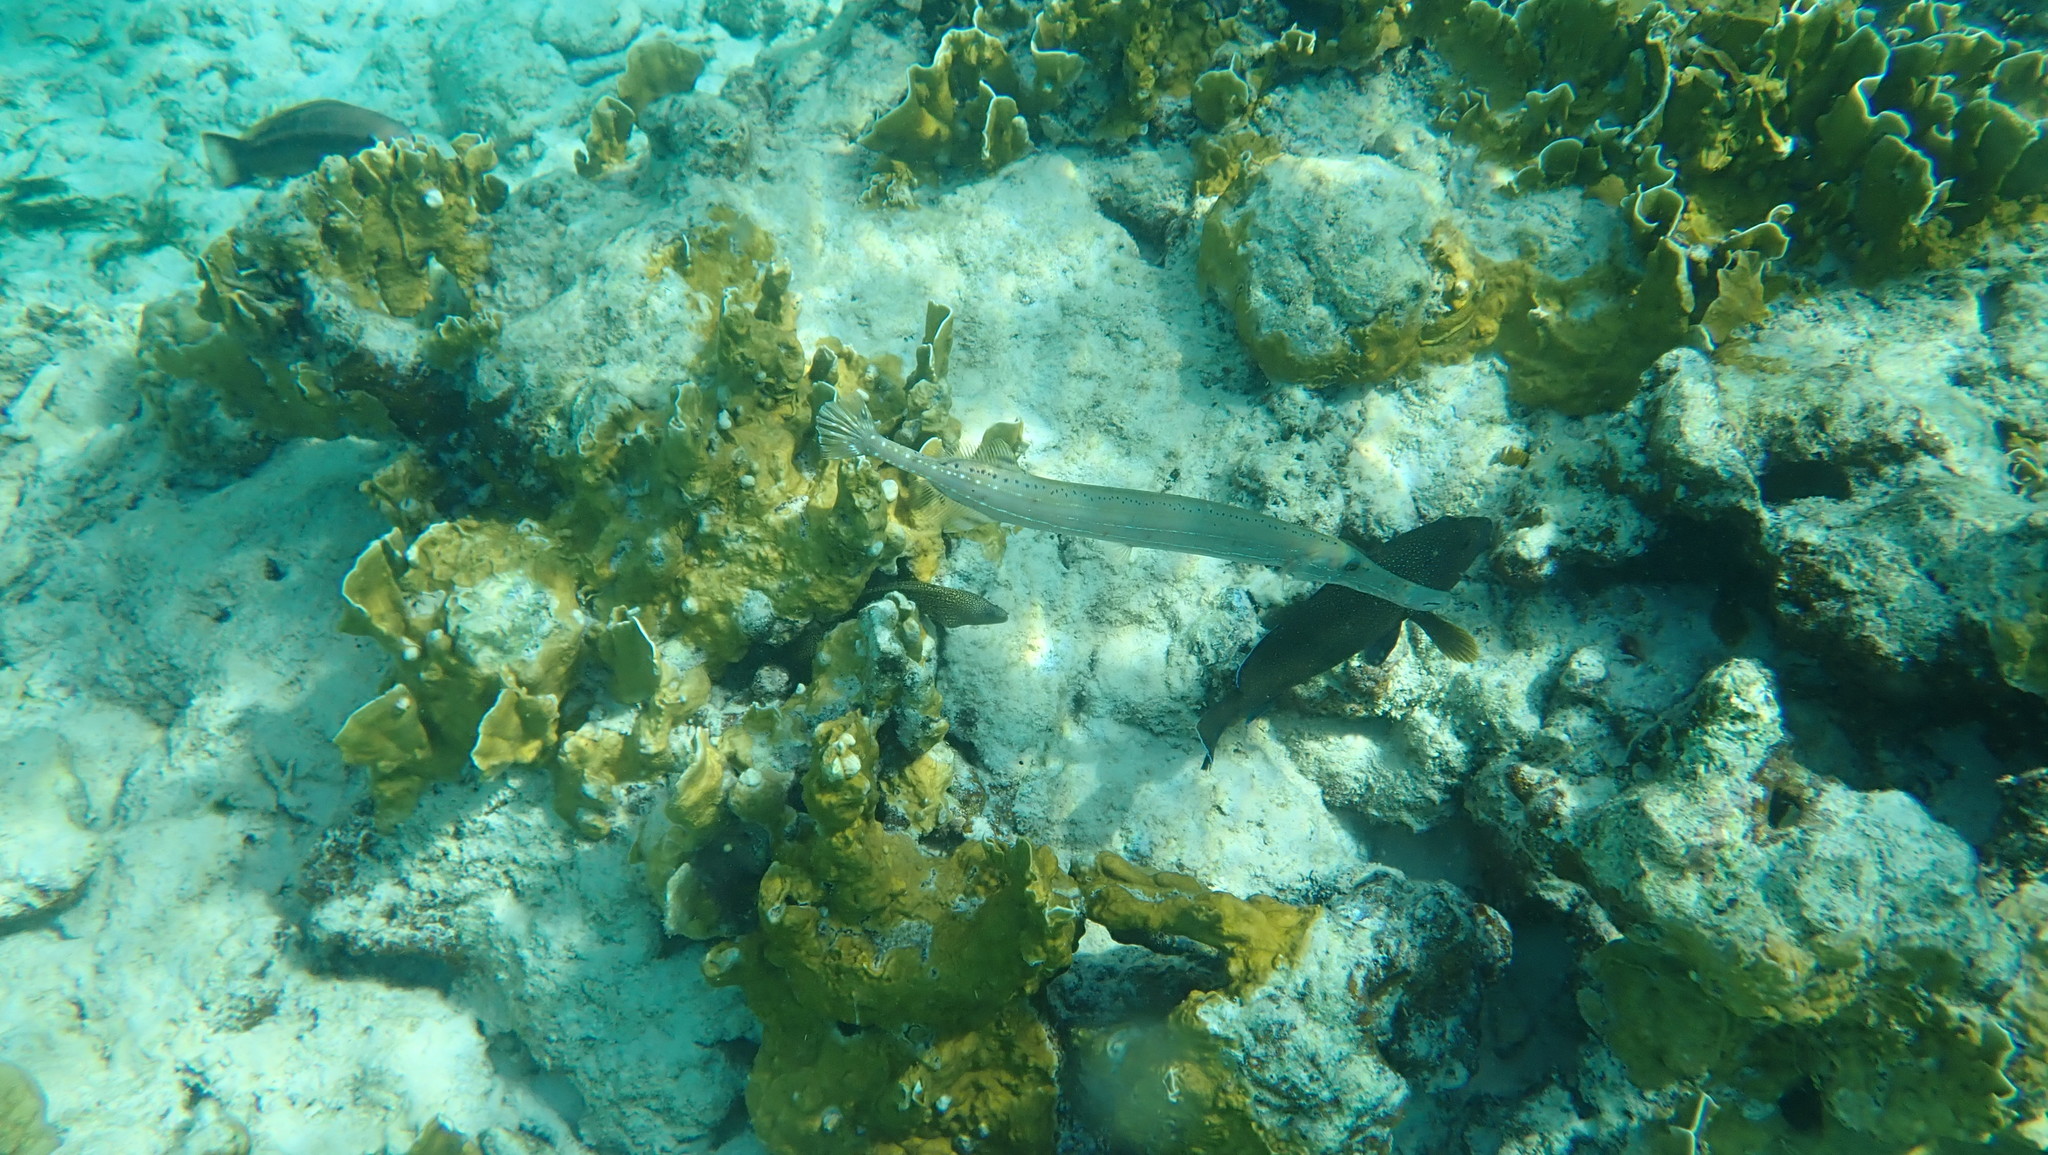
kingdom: Animalia
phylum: Chordata
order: Syngnathiformes
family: Aulostomidae
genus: Aulostomus
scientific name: Aulostomus maculatus
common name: West atlantic trumpetfish
